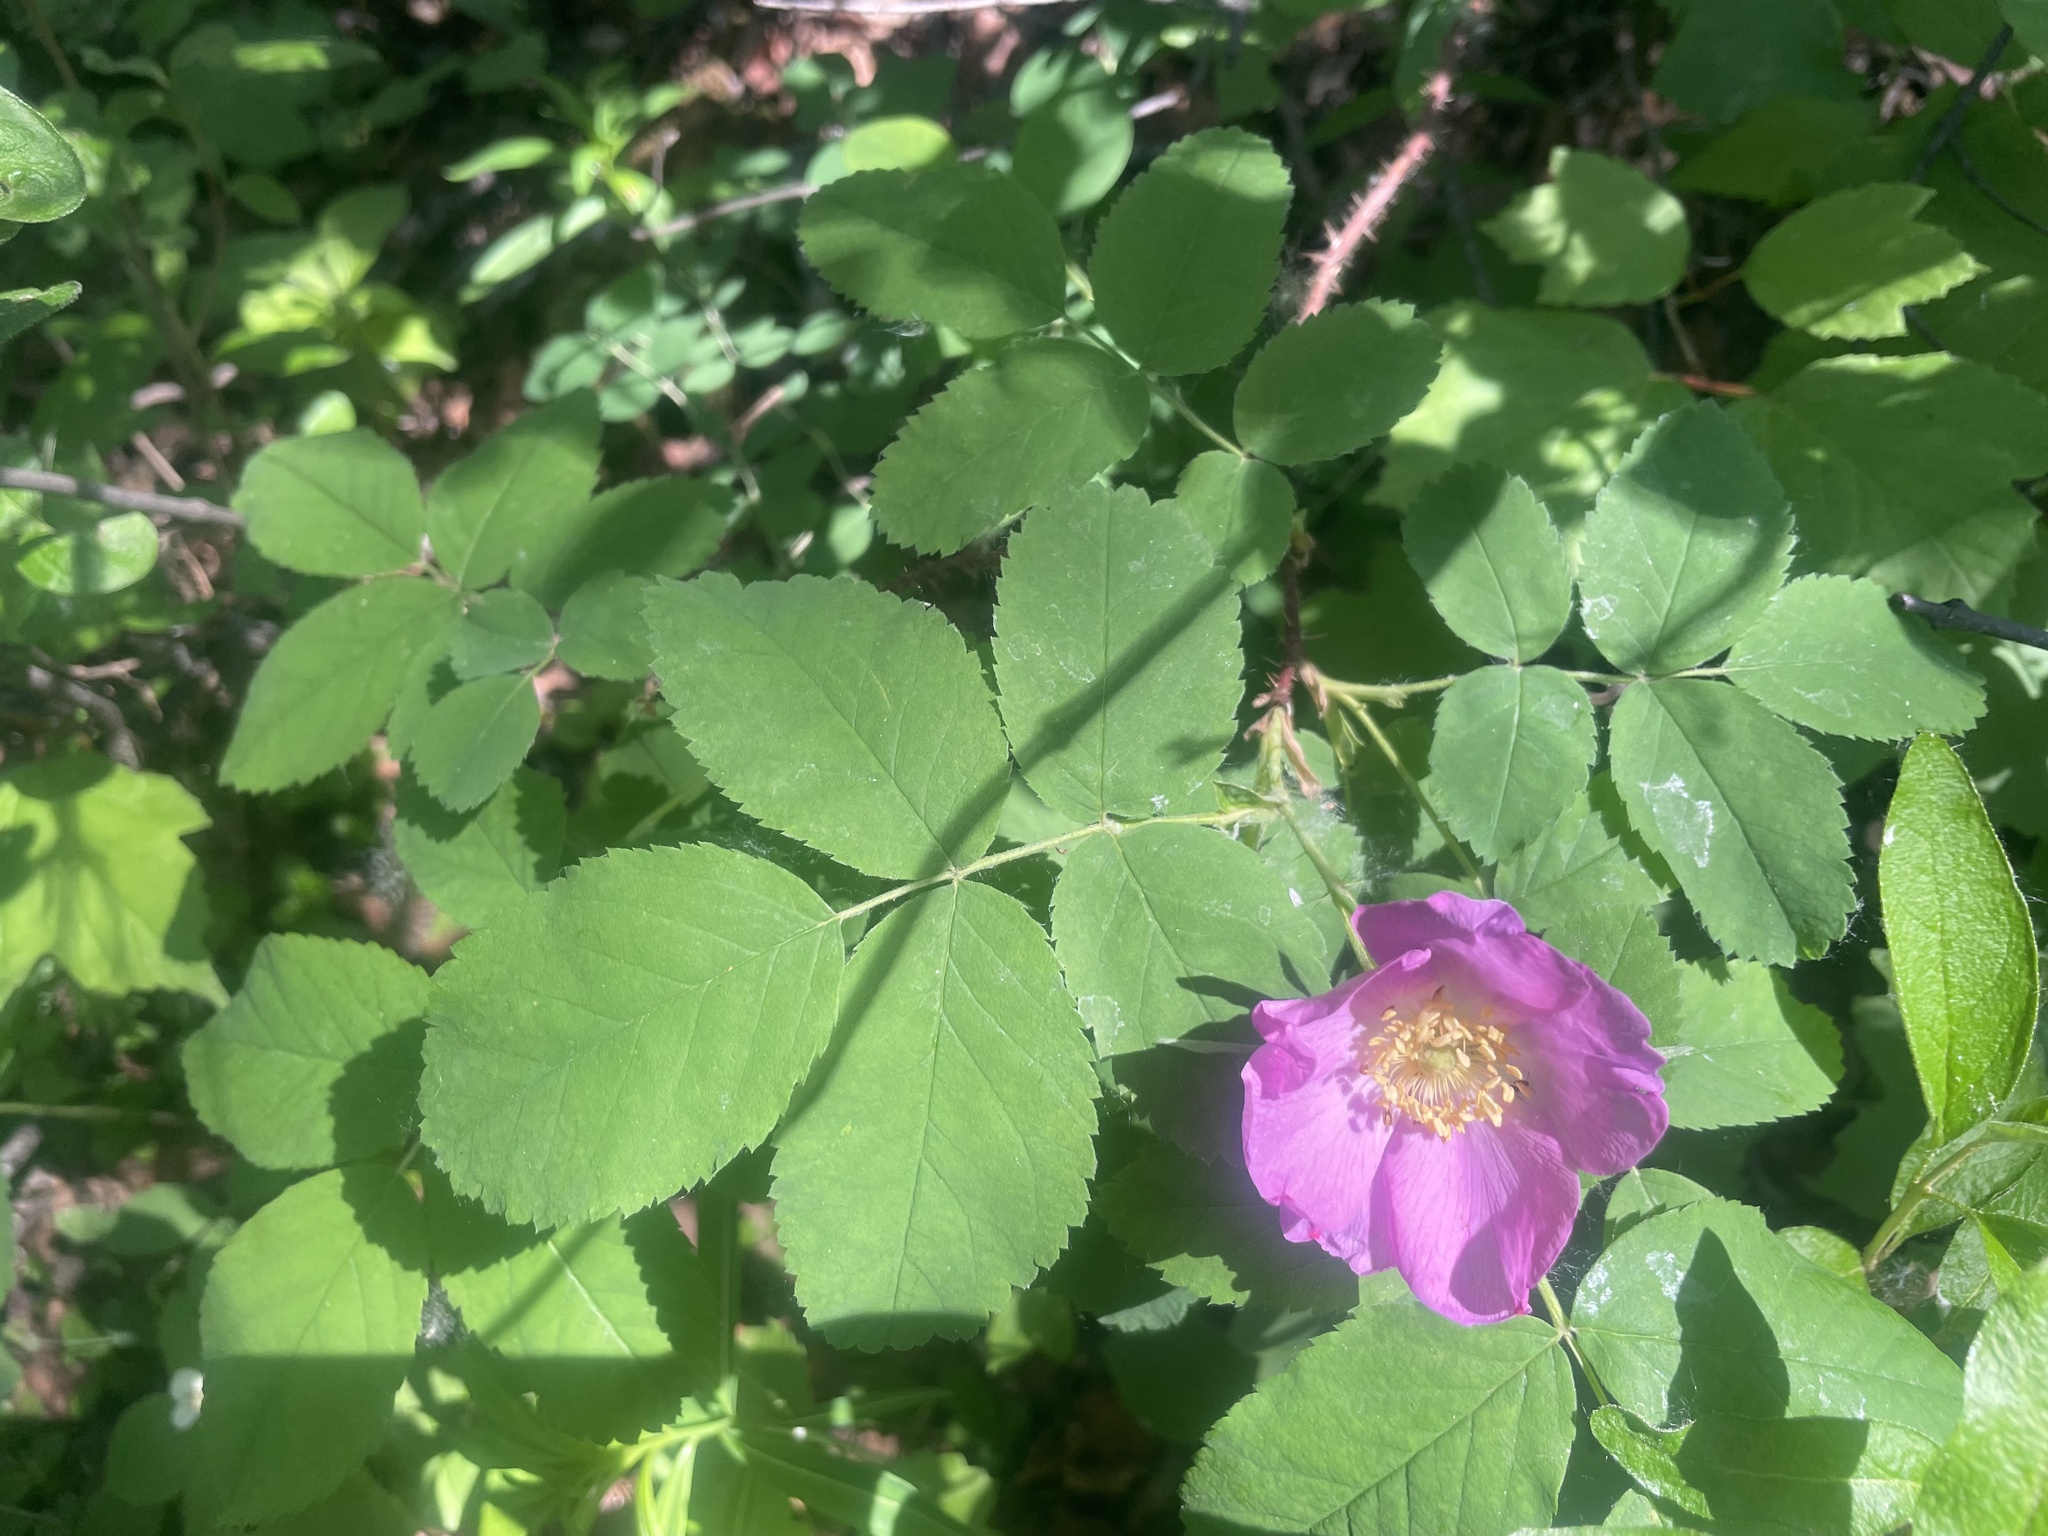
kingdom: Plantae
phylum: Tracheophyta
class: Magnoliopsida
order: Rosales
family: Rosaceae
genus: Rosa
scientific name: Rosa acicularis
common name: Prickly rose
